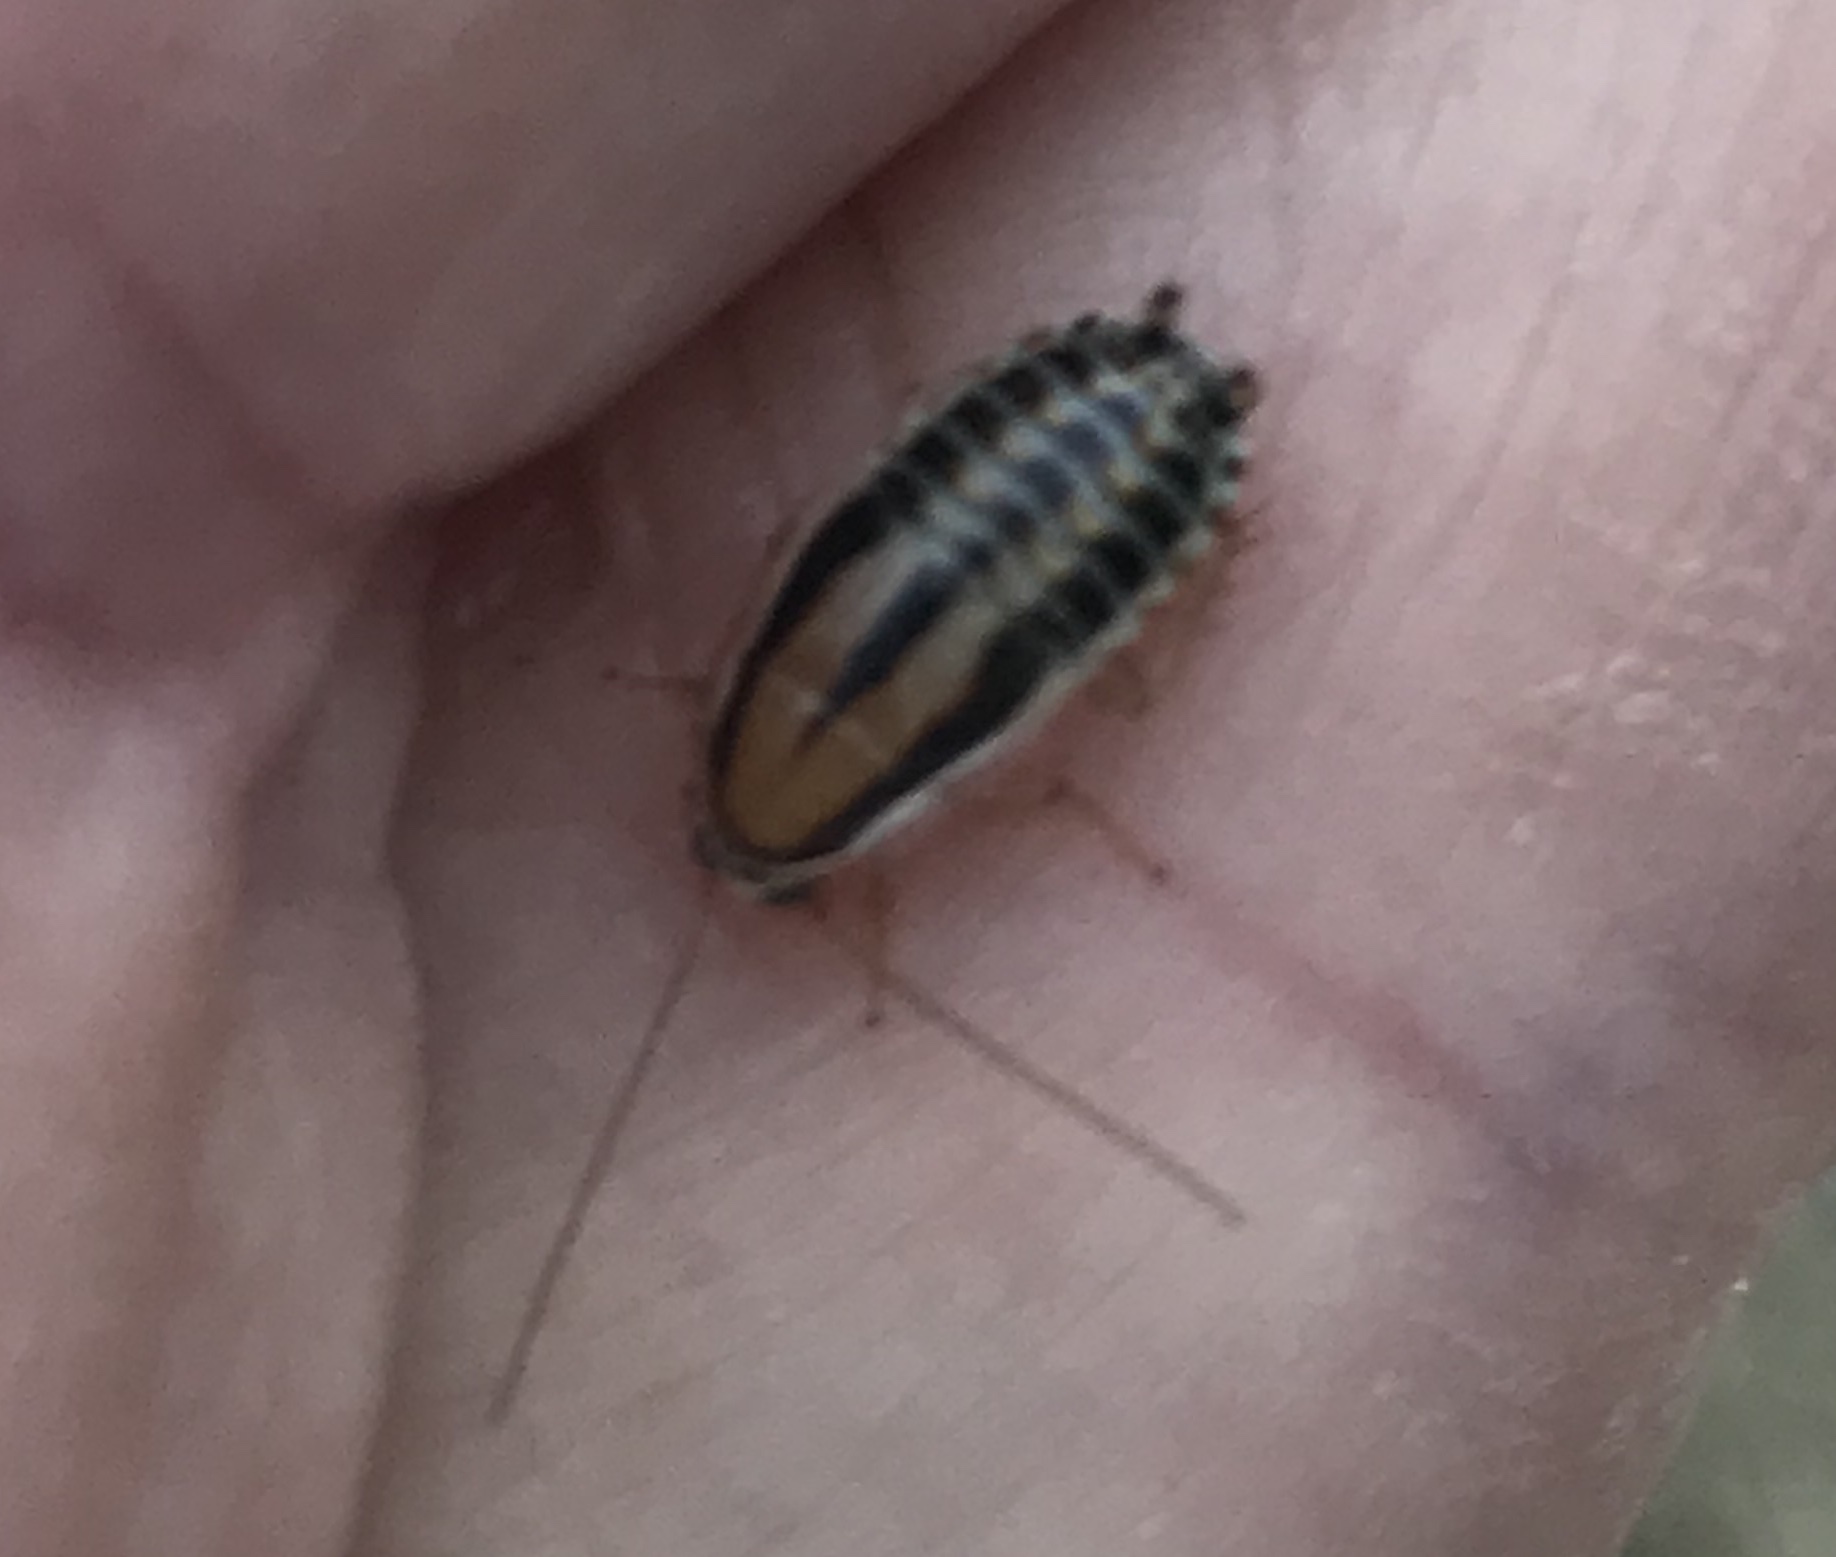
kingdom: Animalia
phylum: Arthropoda
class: Insecta
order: Blattodea
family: Ectobiidae
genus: Luridiblatta
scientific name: Luridiblatta trivittata
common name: Three-lined cockroach
